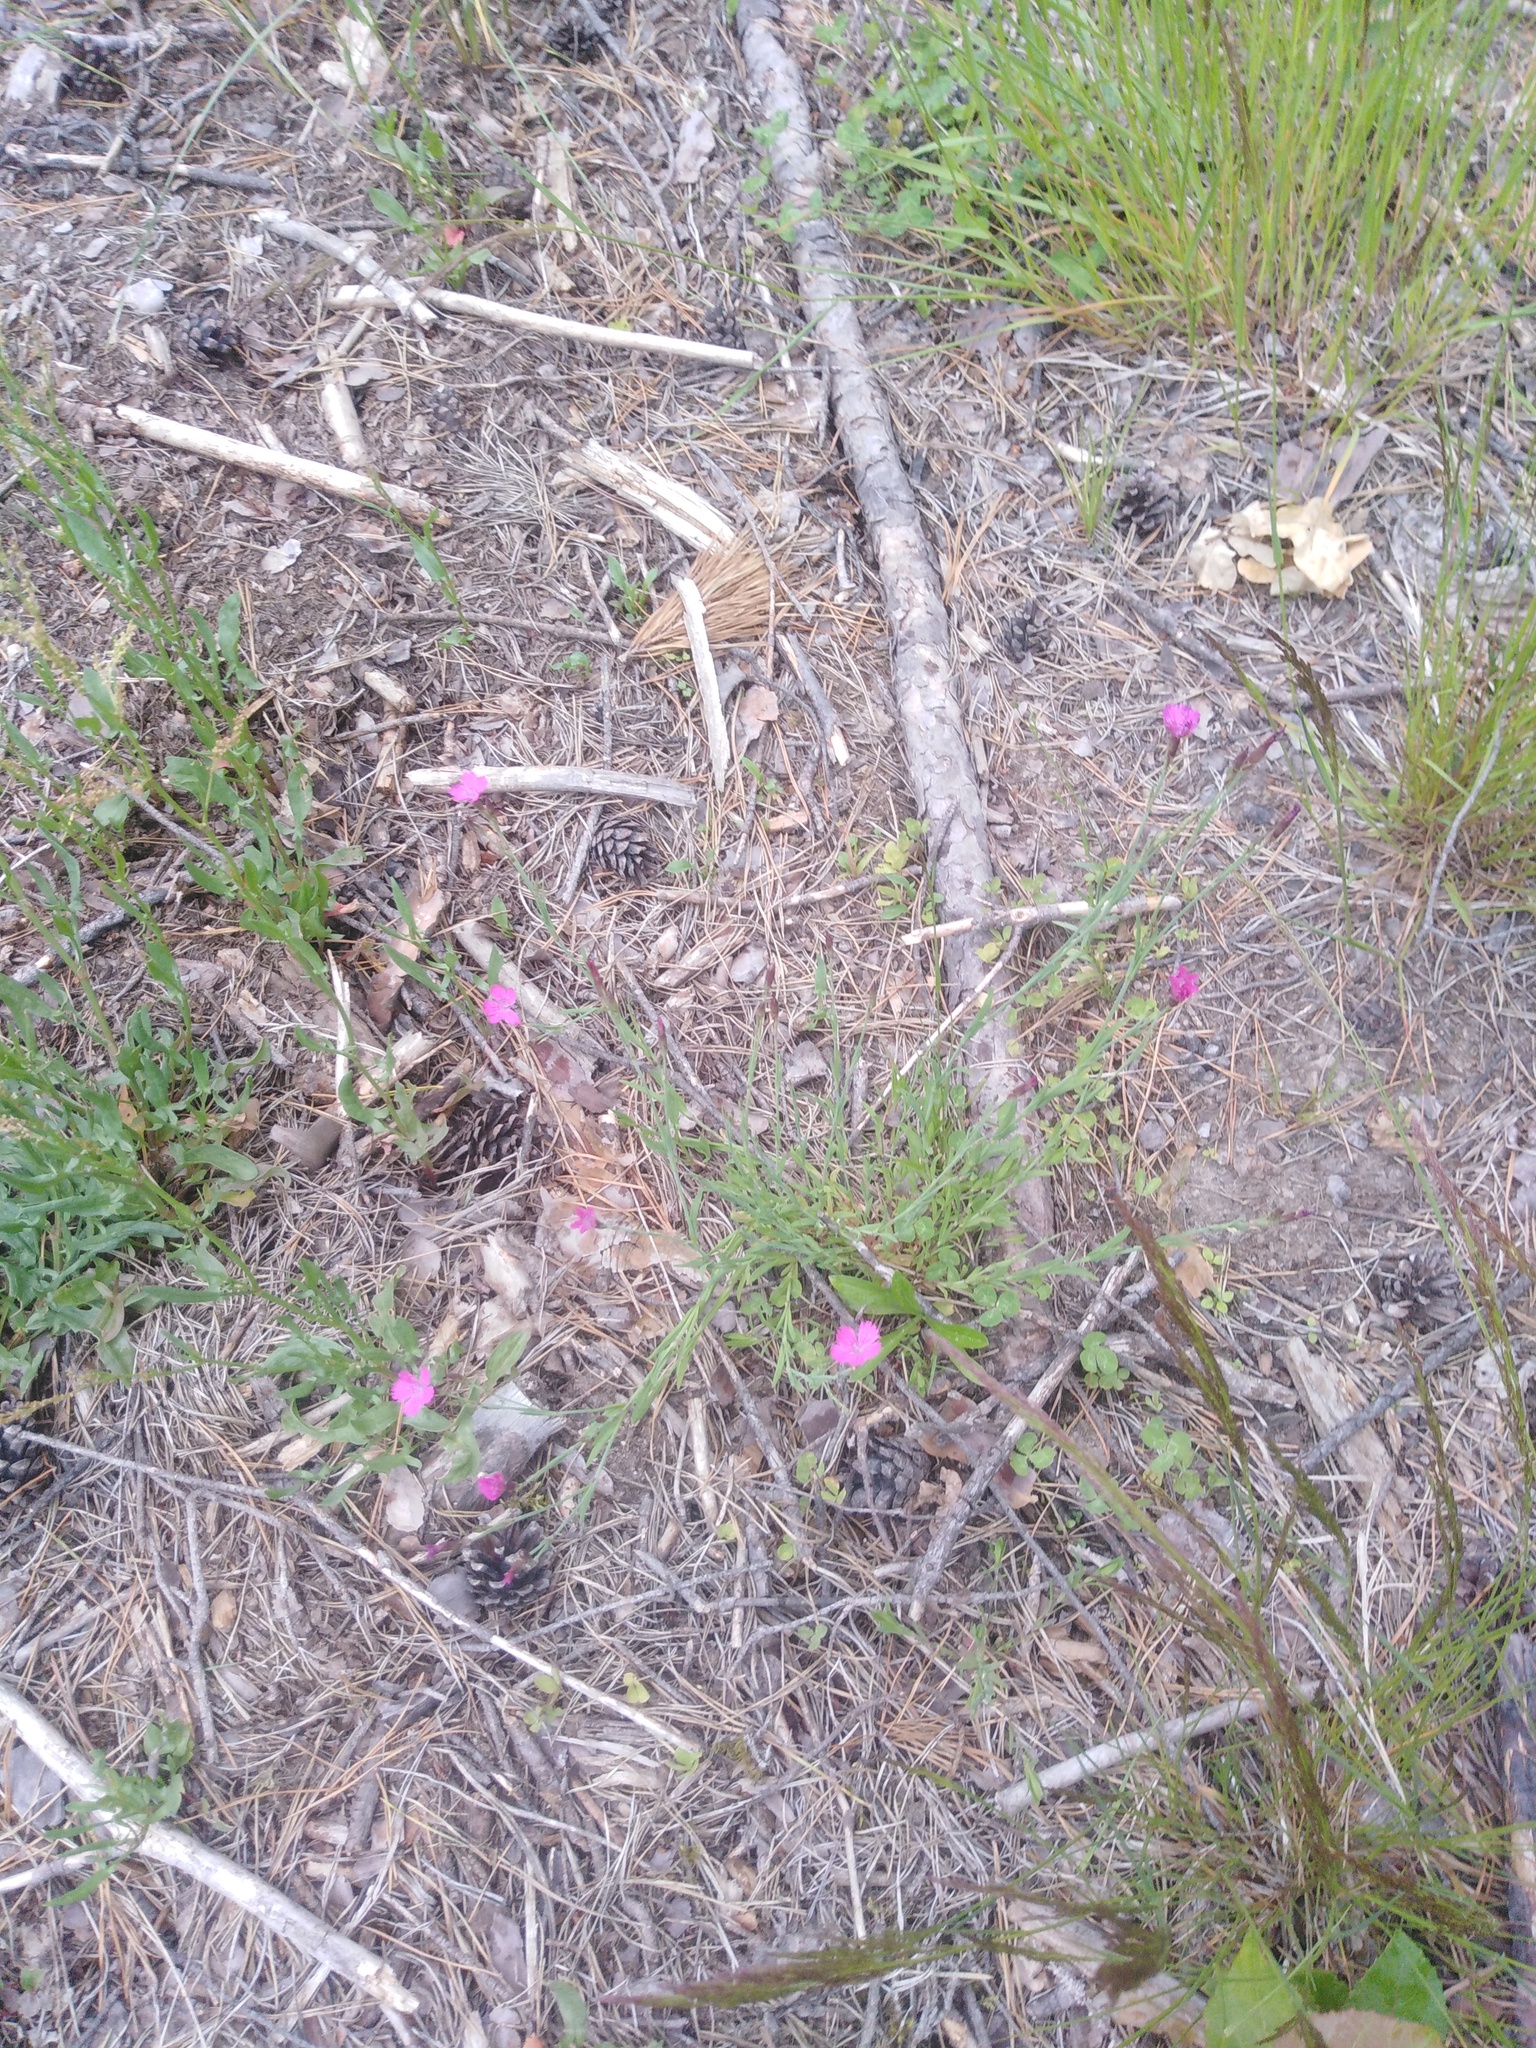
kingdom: Plantae
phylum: Tracheophyta
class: Magnoliopsida
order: Caryophyllales
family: Caryophyllaceae
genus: Dianthus
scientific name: Dianthus deltoides
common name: Maiden pink
